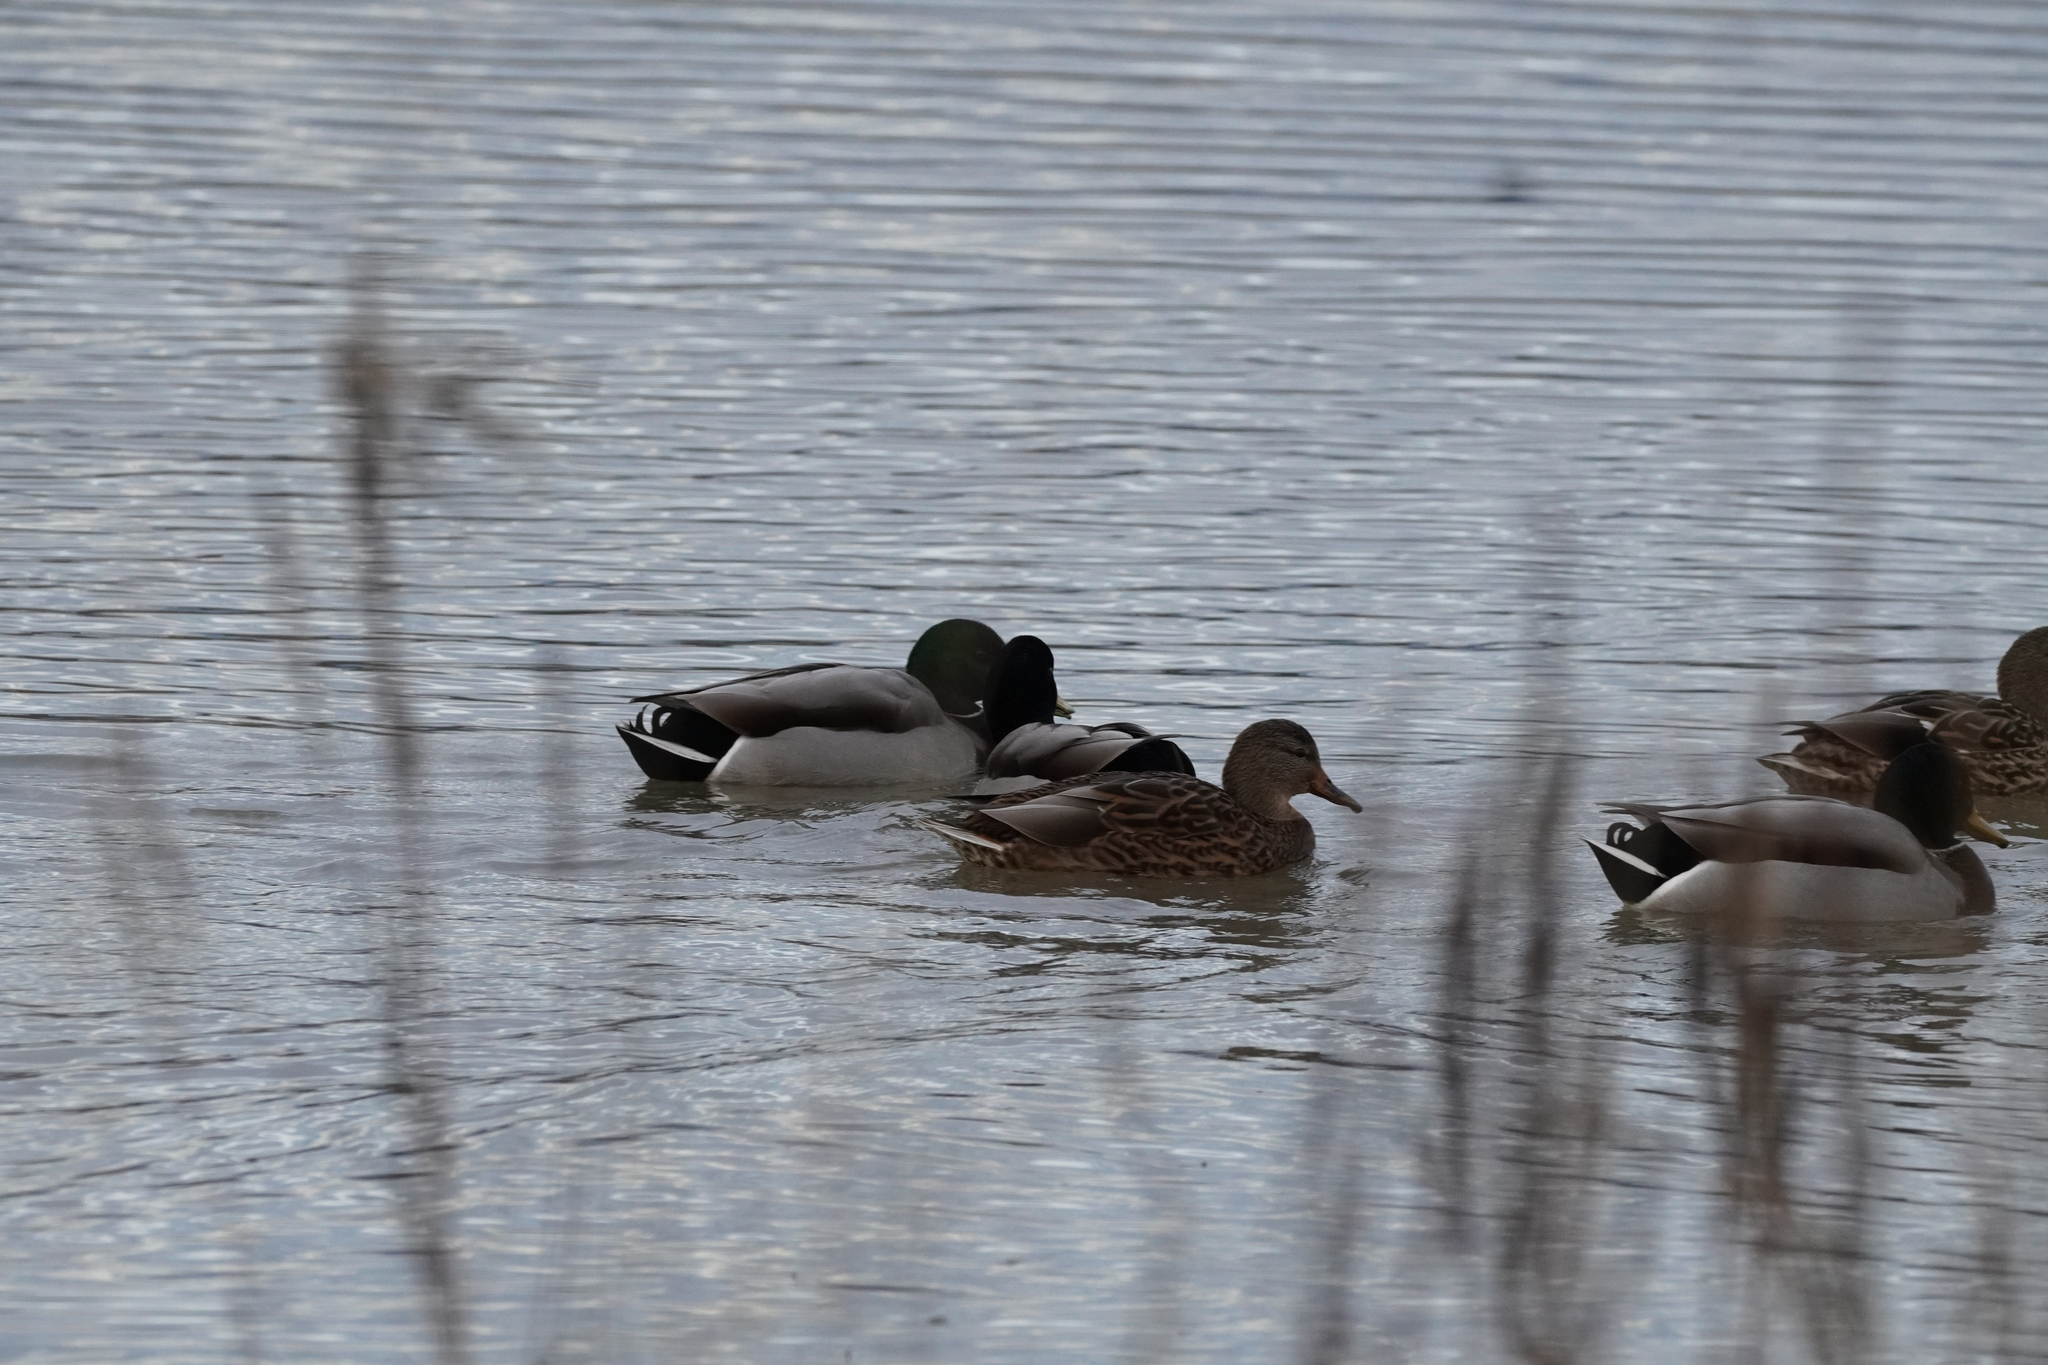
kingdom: Animalia
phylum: Chordata
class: Aves
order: Anseriformes
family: Anatidae
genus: Anas
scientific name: Anas platyrhynchos
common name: Mallard
